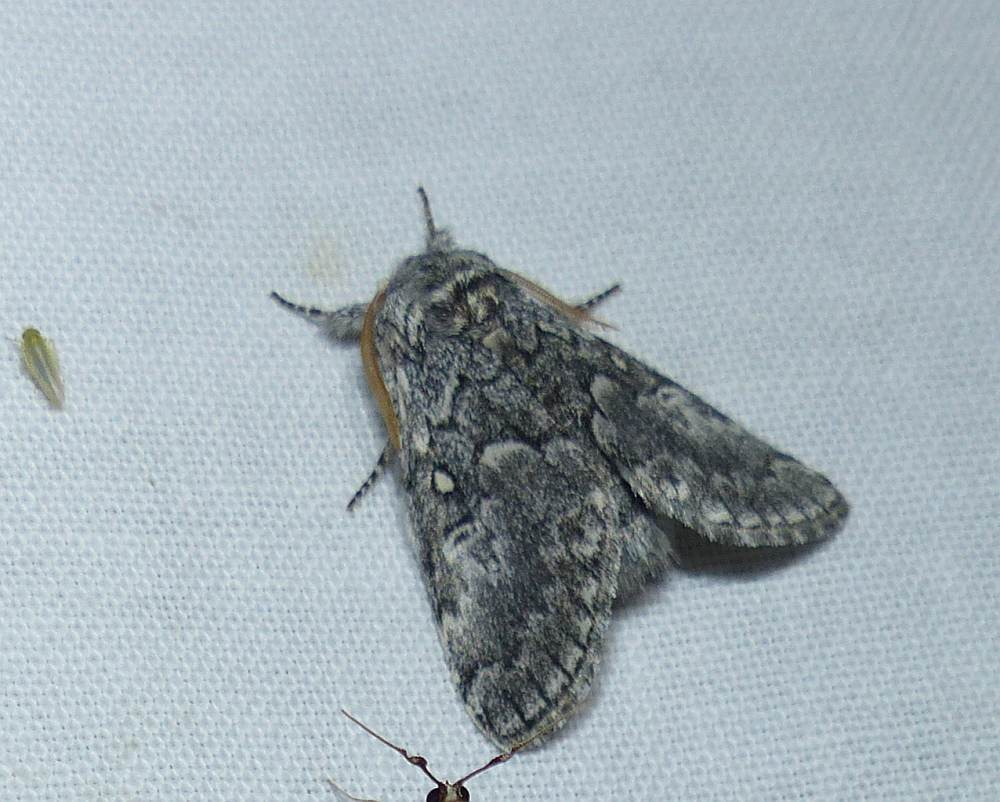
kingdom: Animalia
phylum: Arthropoda
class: Insecta
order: Lepidoptera
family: Noctuidae
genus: Colocasia
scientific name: Colocasia propinquilinea
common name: Close-banded demas
